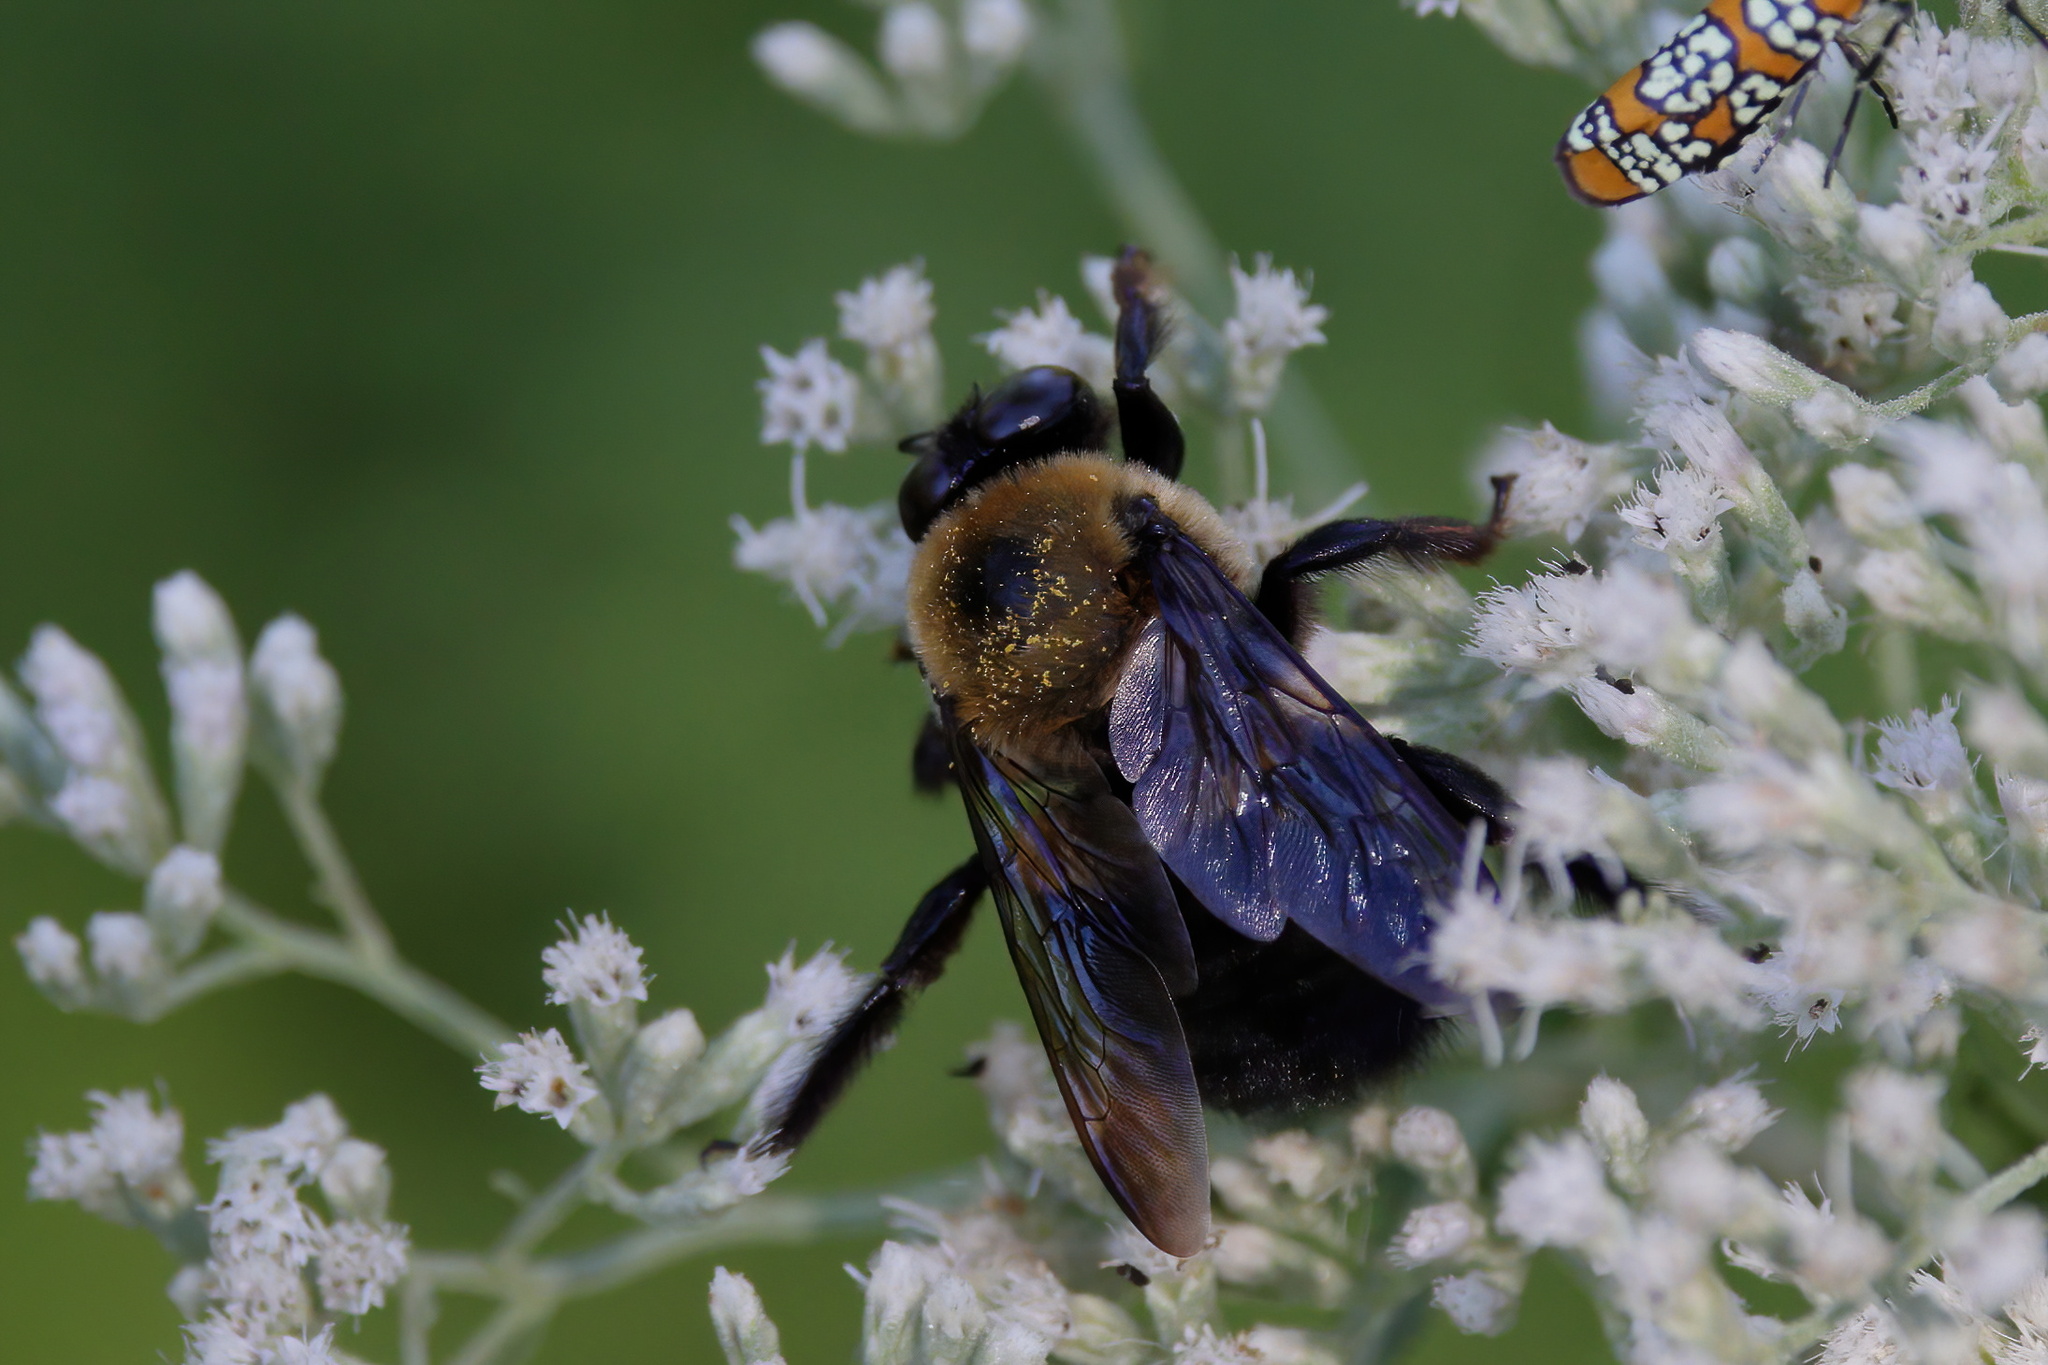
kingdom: Animalia
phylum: Arthropoda
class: Insecta
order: Hymenoptera
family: Apidae
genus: Xylocopa
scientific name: Xylocopa virginica
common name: Carpenter bee
